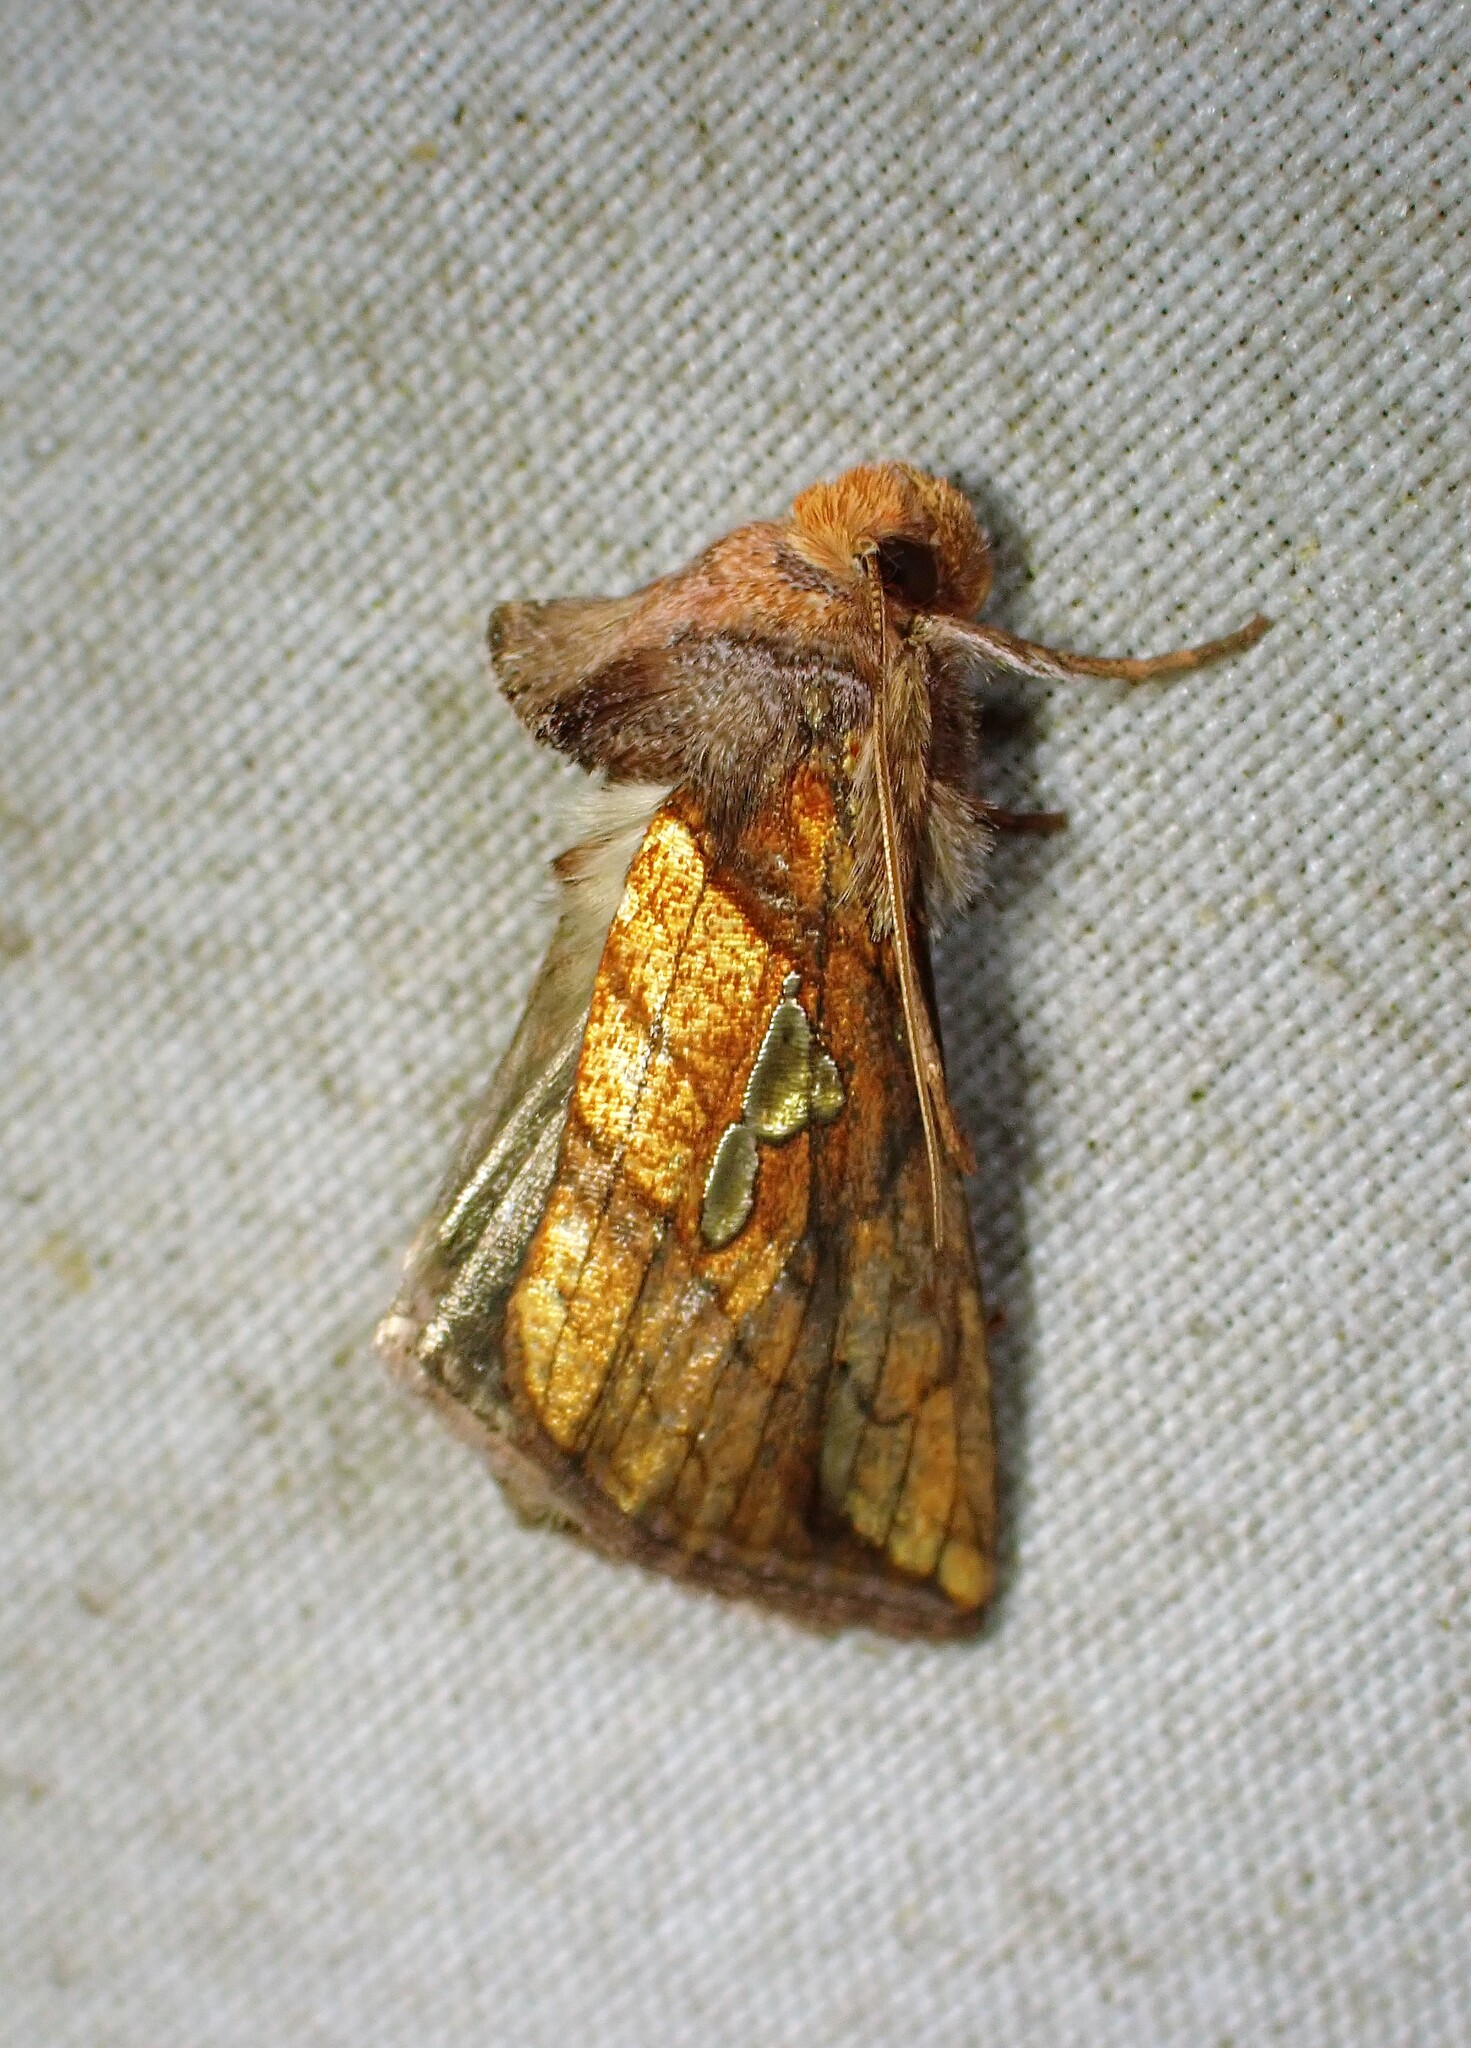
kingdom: Animalia
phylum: Arthropoda
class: Insecta
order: Lepidoptera
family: Noctuidae
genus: Plusia
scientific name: Plusia putnami
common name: Lempke's gold spot
